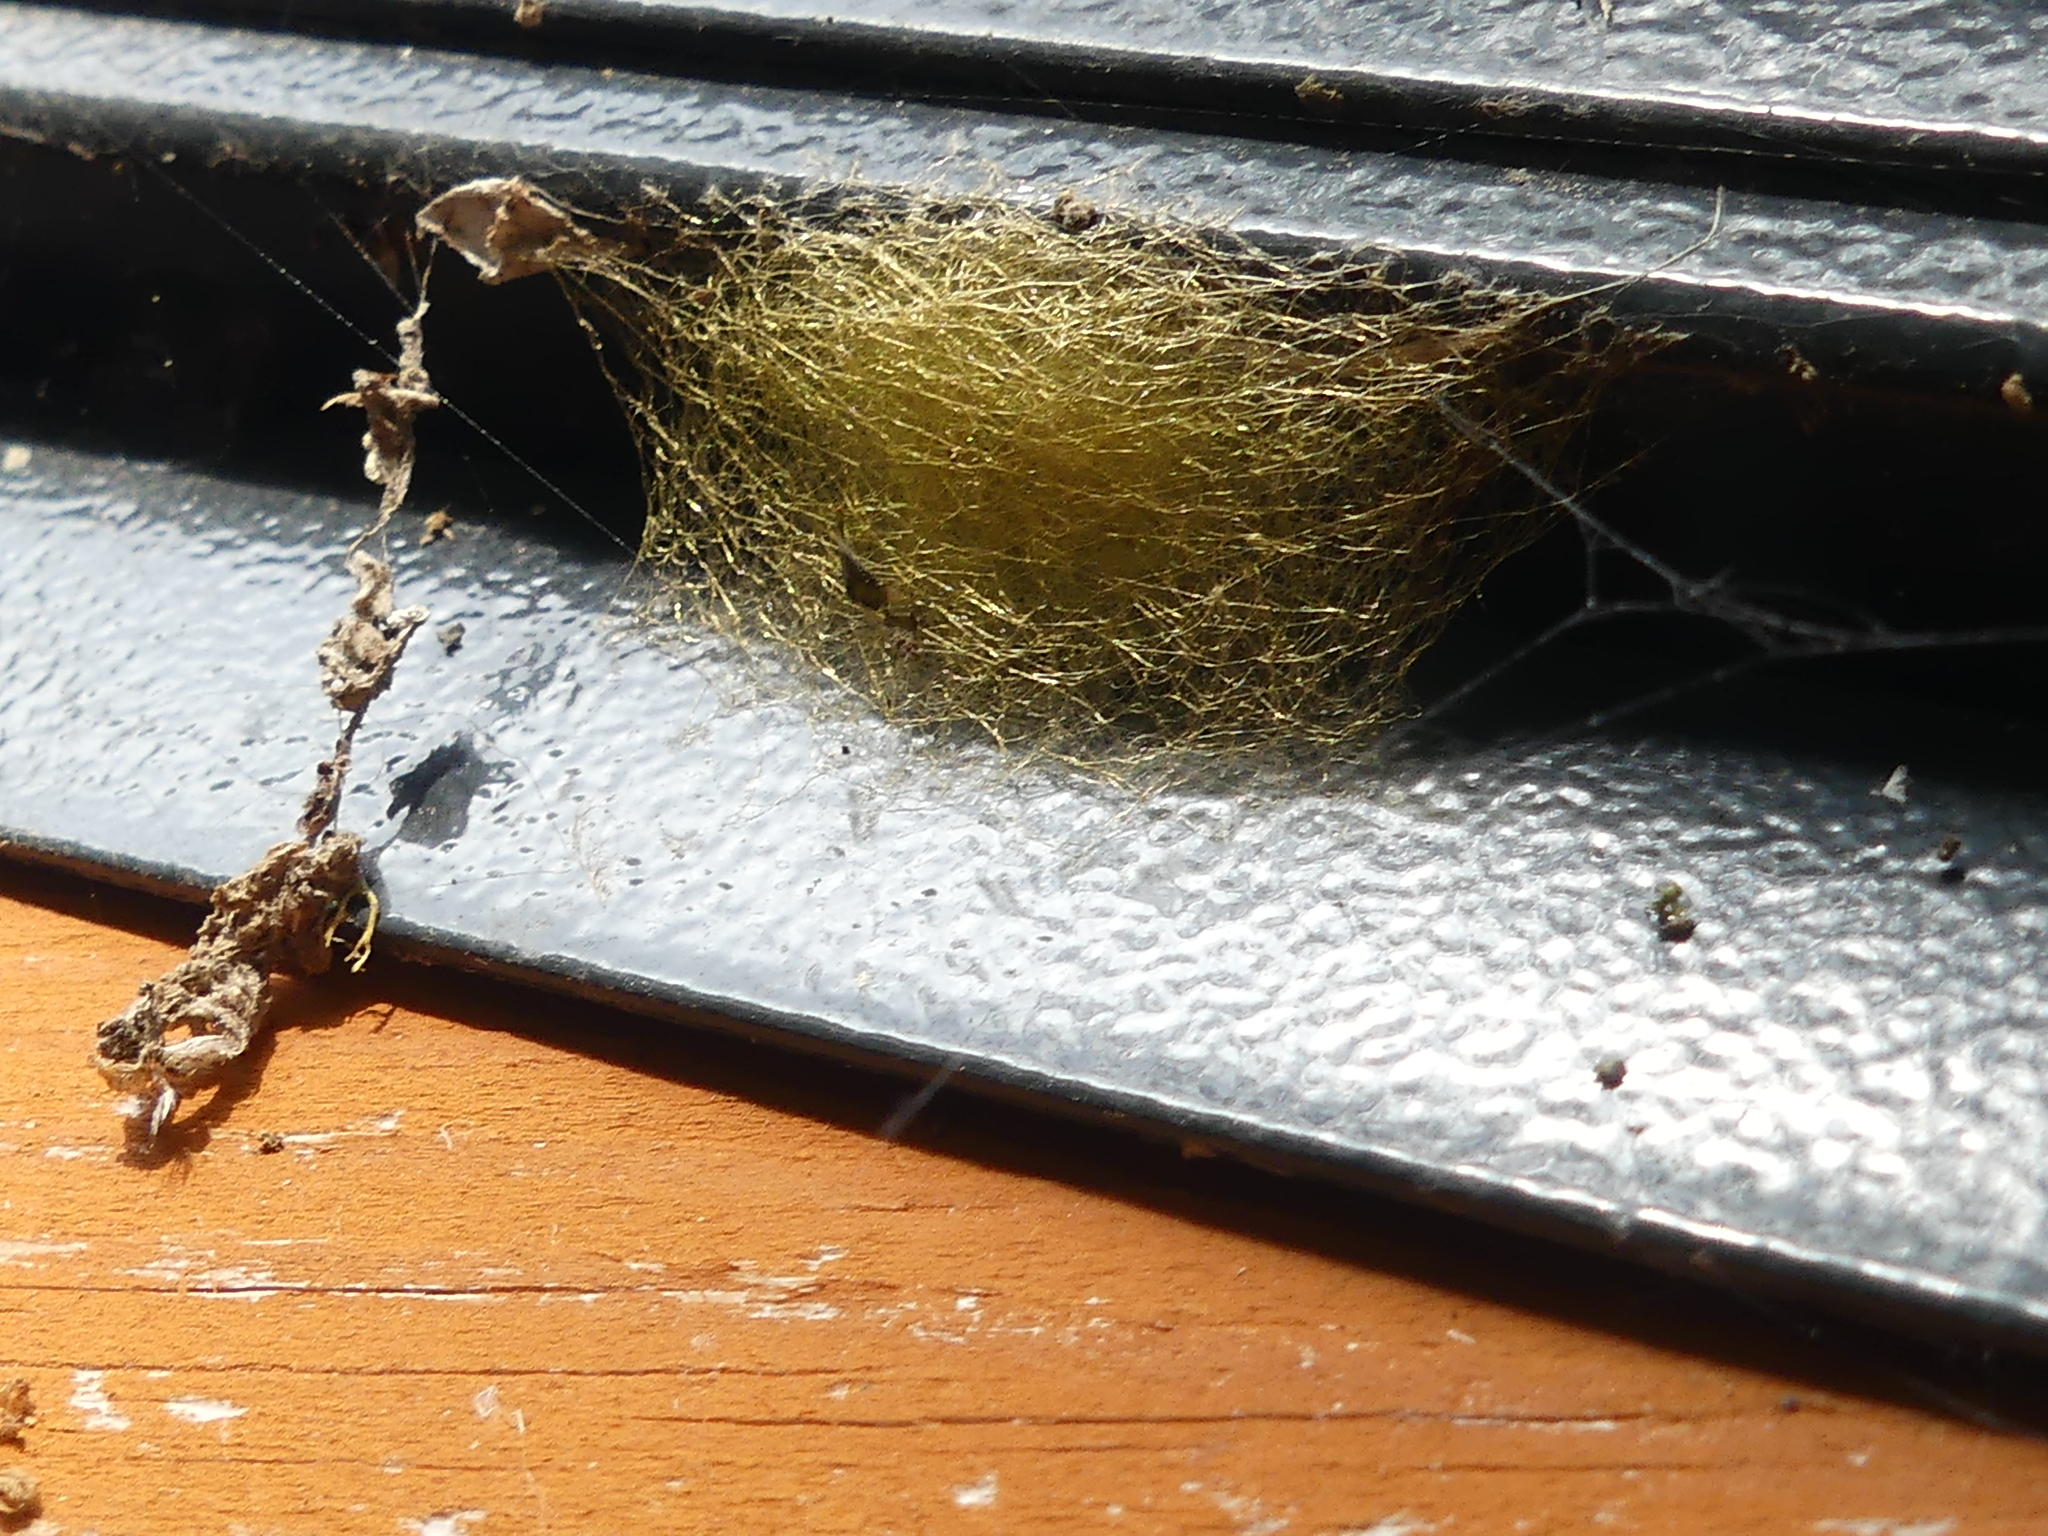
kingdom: Animalia
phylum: Arthropoda
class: Arachnida
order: Araneae
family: Araneidae
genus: Gasteracantha
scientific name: Gasteracantha cancriformis
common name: Orb weavers
